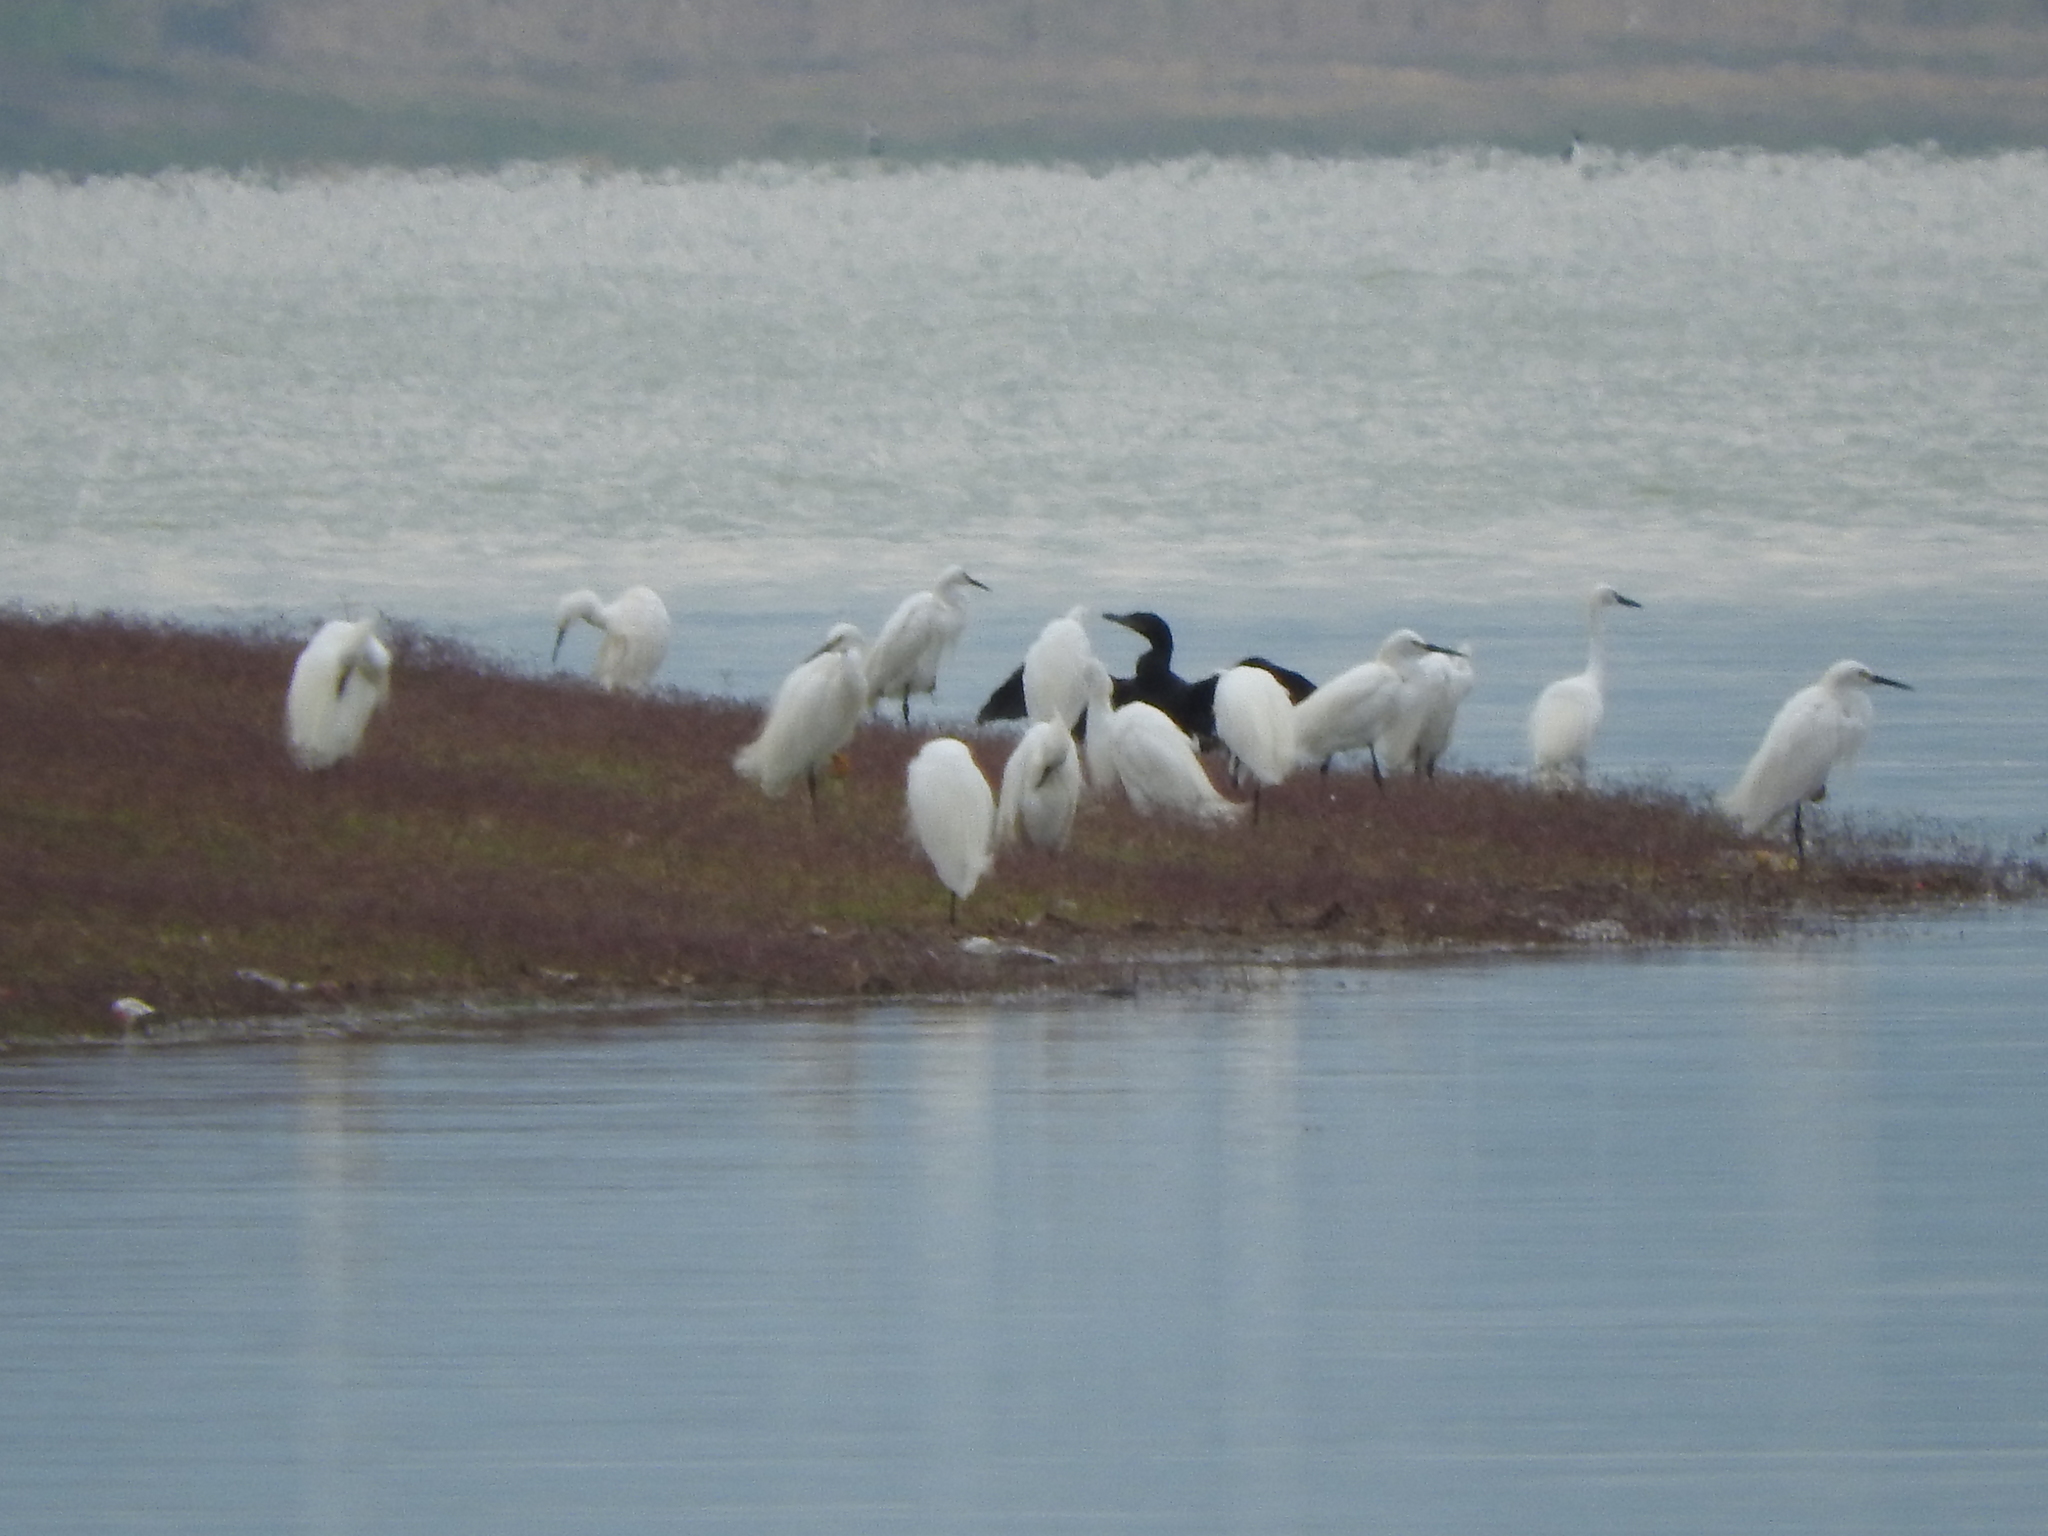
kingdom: Animalia
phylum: Chordata
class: Aves
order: Suliformes
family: Phalacrocoracidae
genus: Phalacrocorax
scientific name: Phalacrocorax brasilianus
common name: Neotropic cormorant
